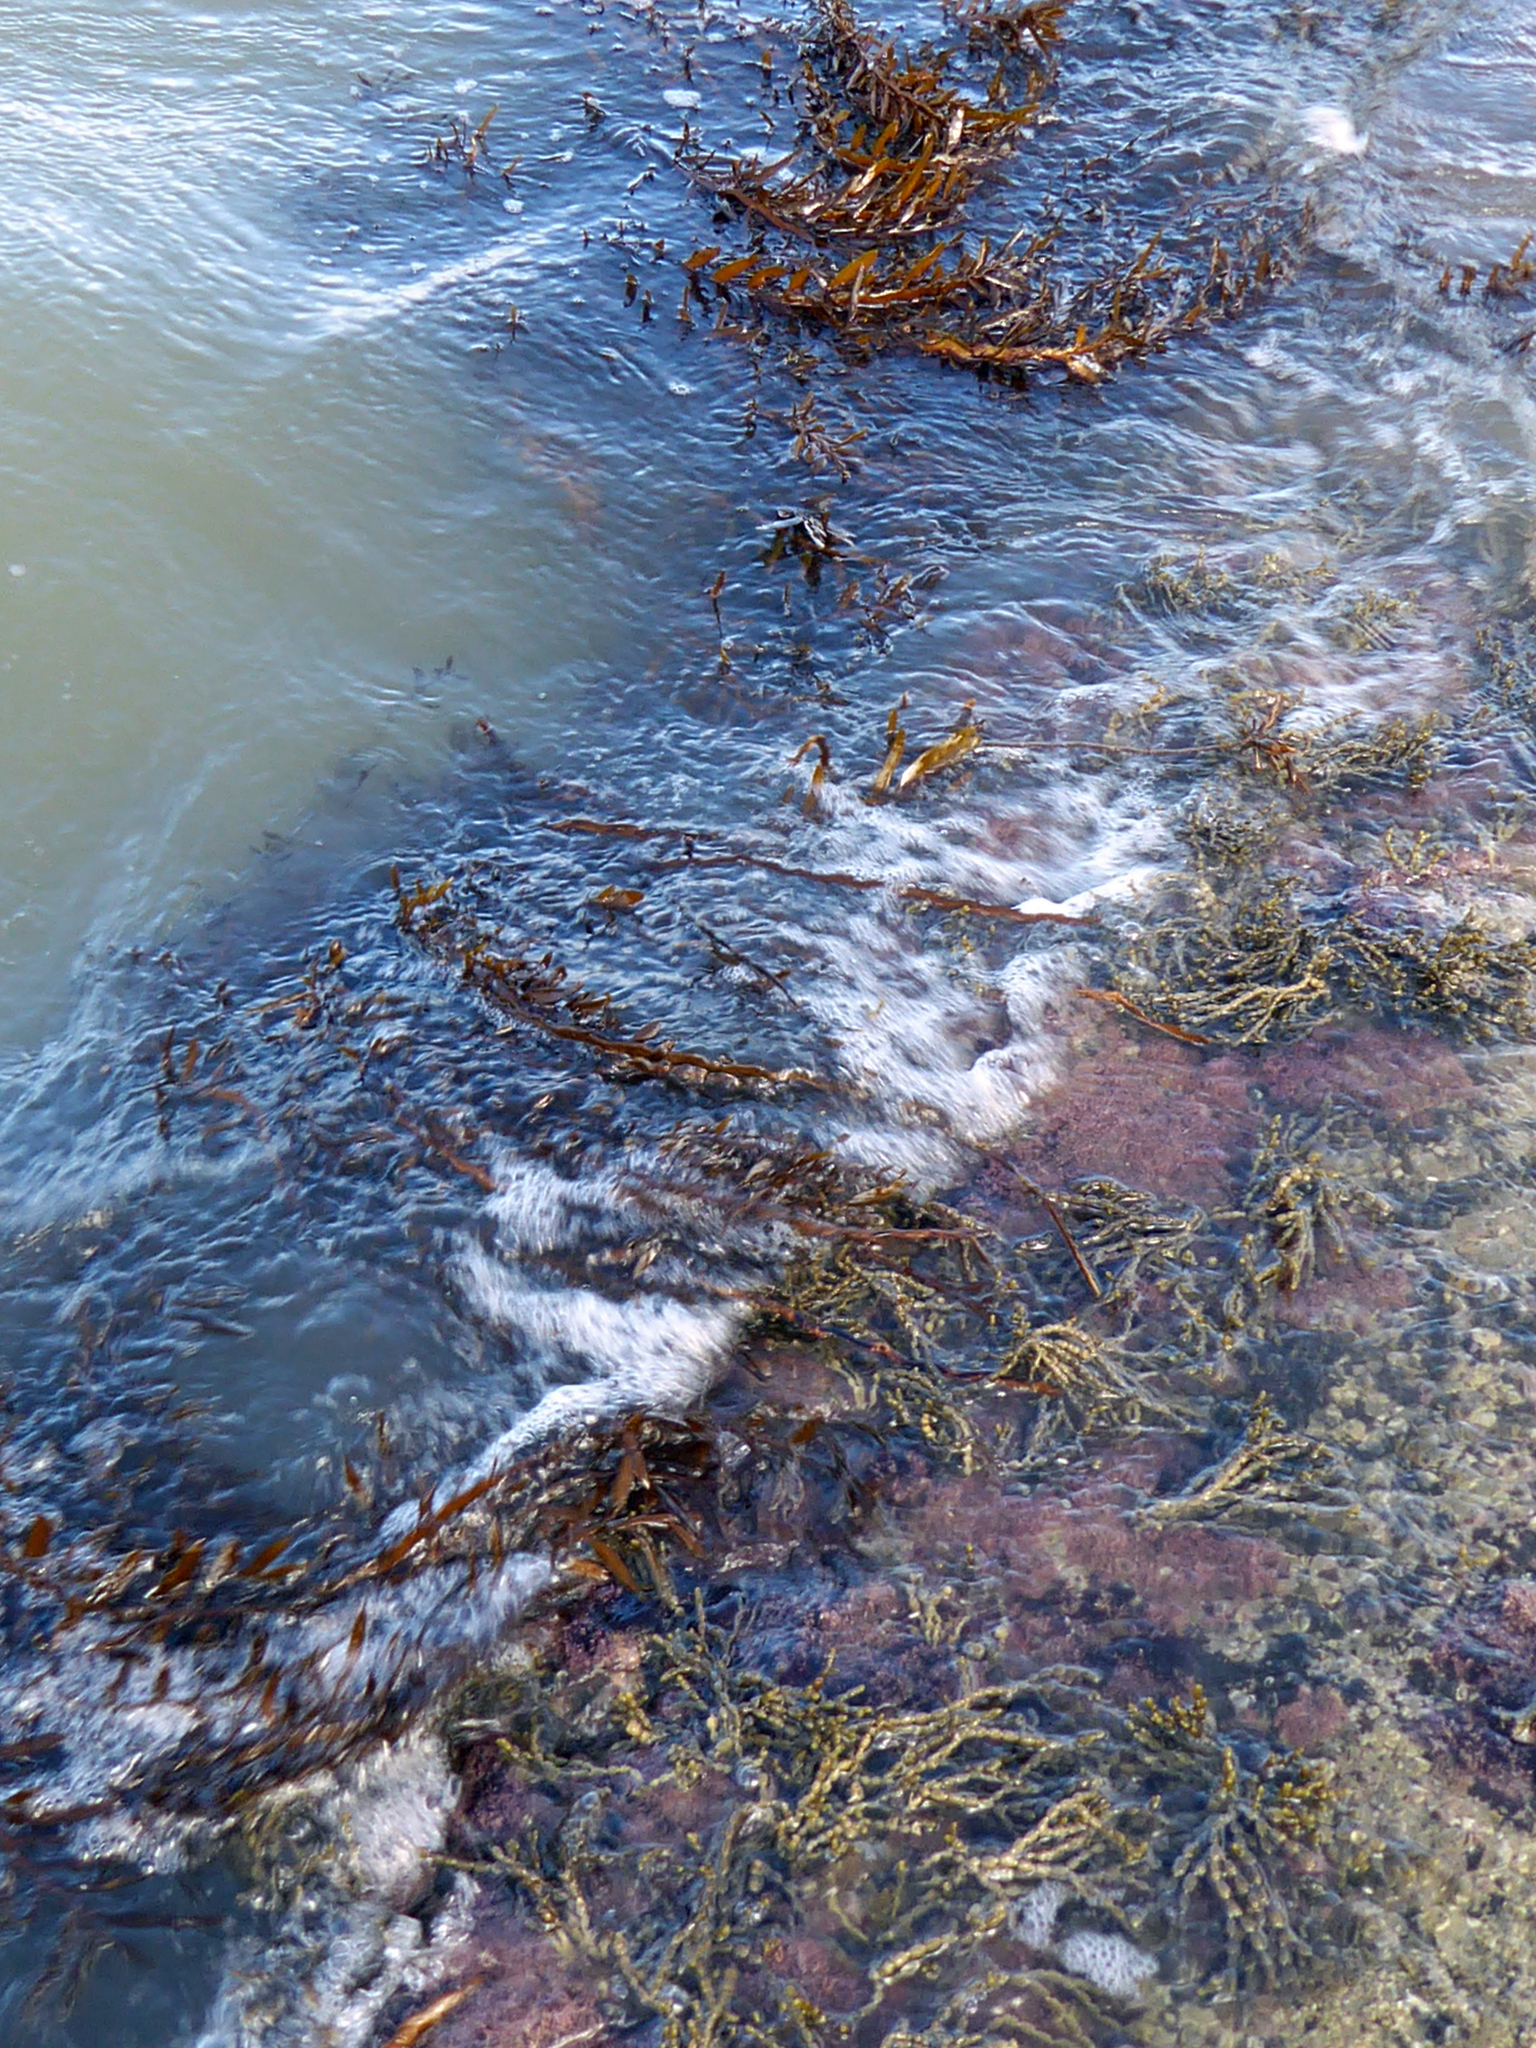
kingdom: Chromista
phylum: Ochrophyta
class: Phaeophyceae
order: Fucales
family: Sargassaceae
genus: Carpophyllum
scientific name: Carpophyllum maschalocarpum
